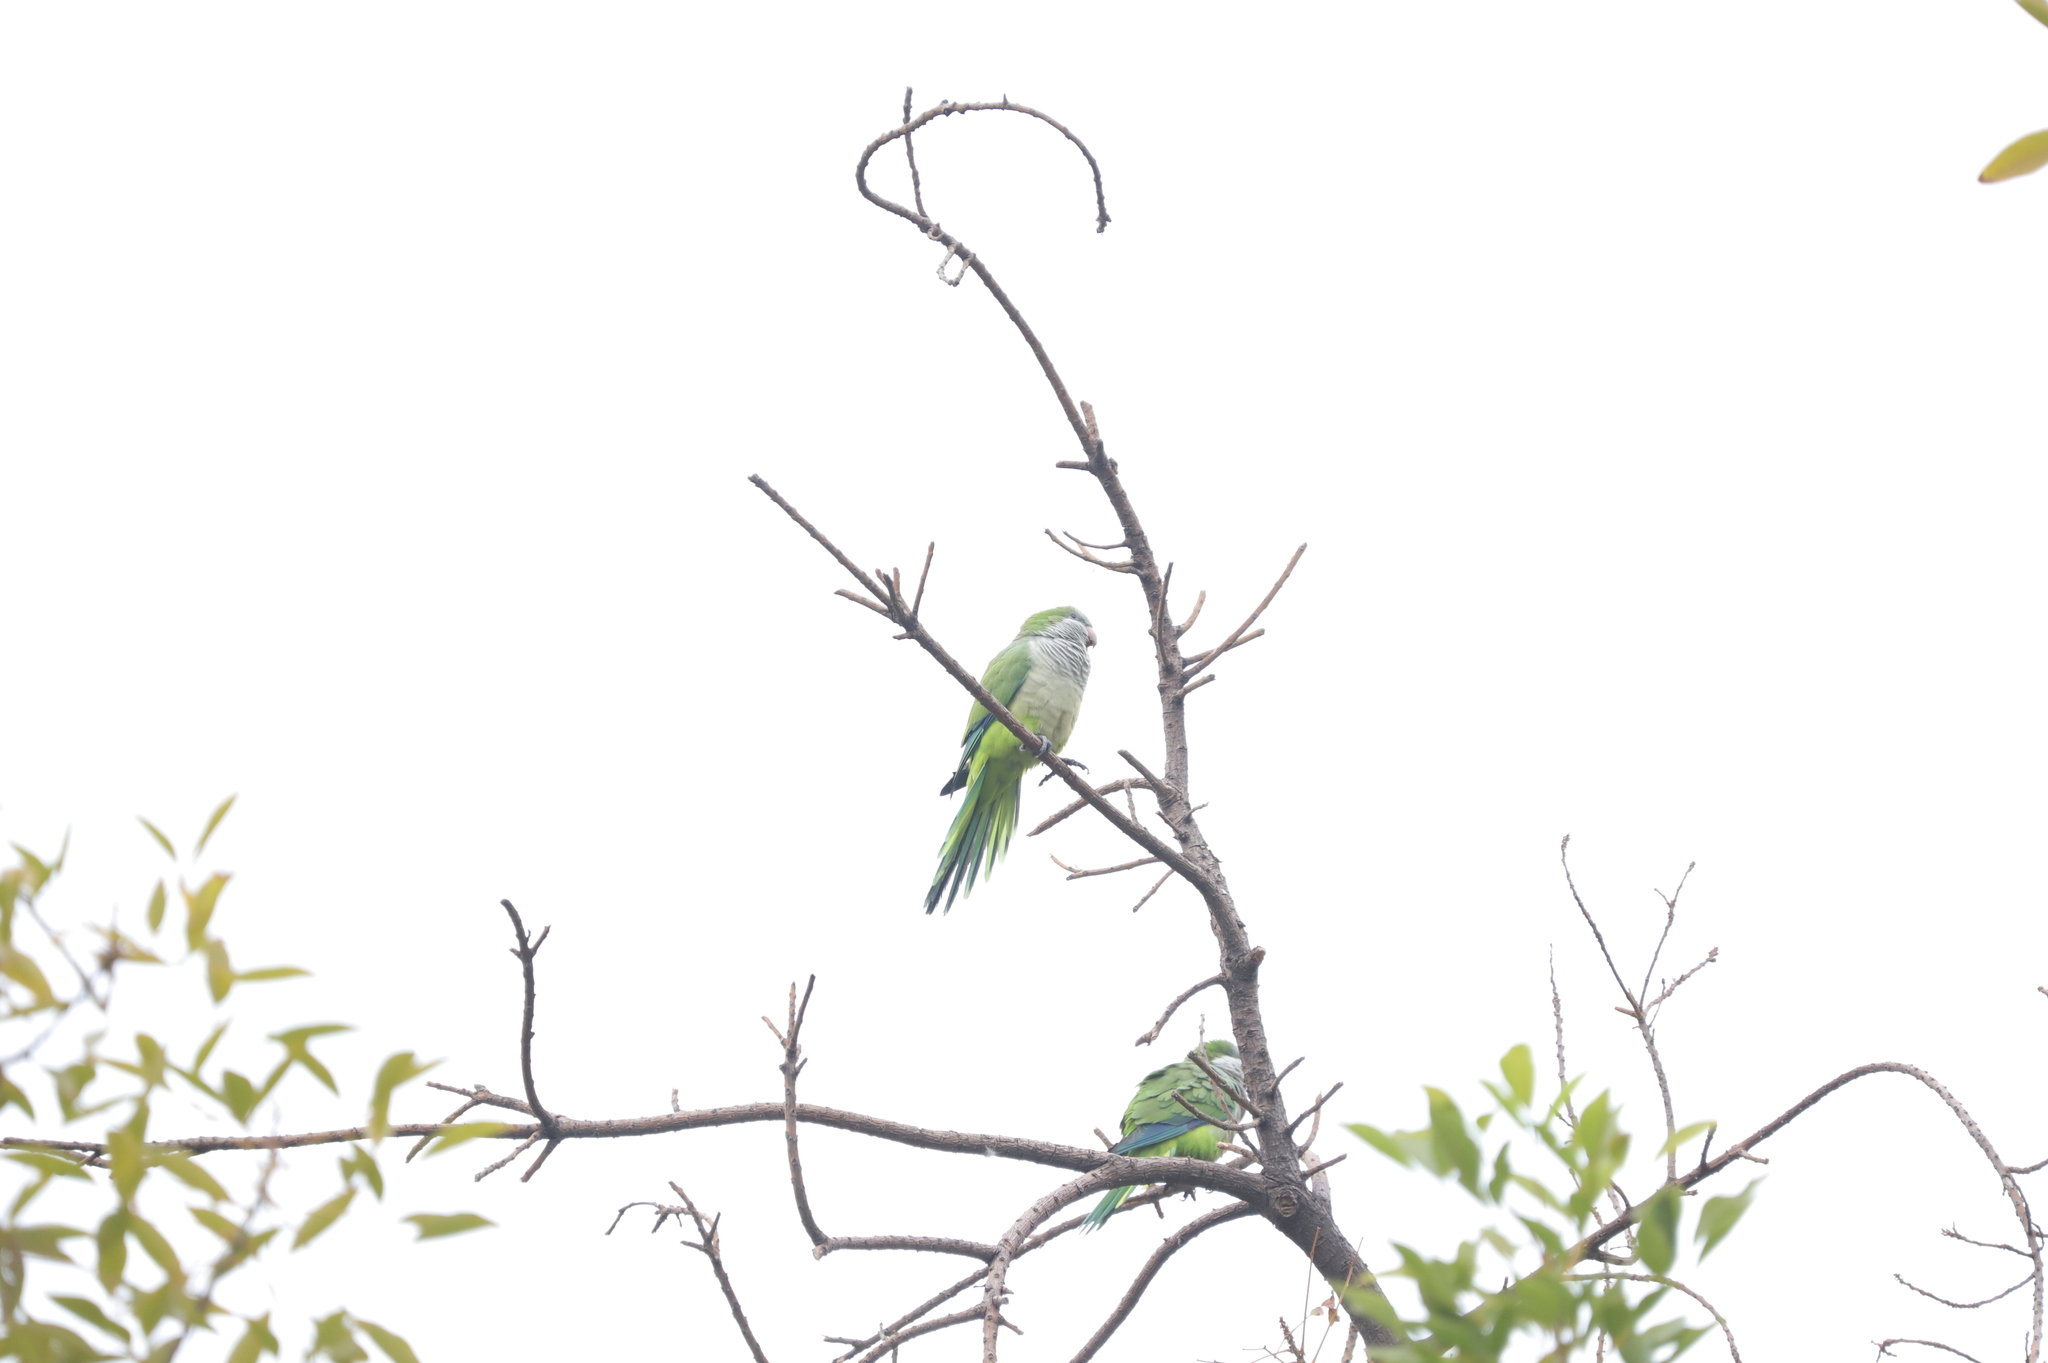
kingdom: Animalia
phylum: Chordata
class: Aves
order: Psittaciformes
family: Psittacidae
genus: Myiopsitta
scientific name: Myiopsitta monachus
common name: Monk parakeet
